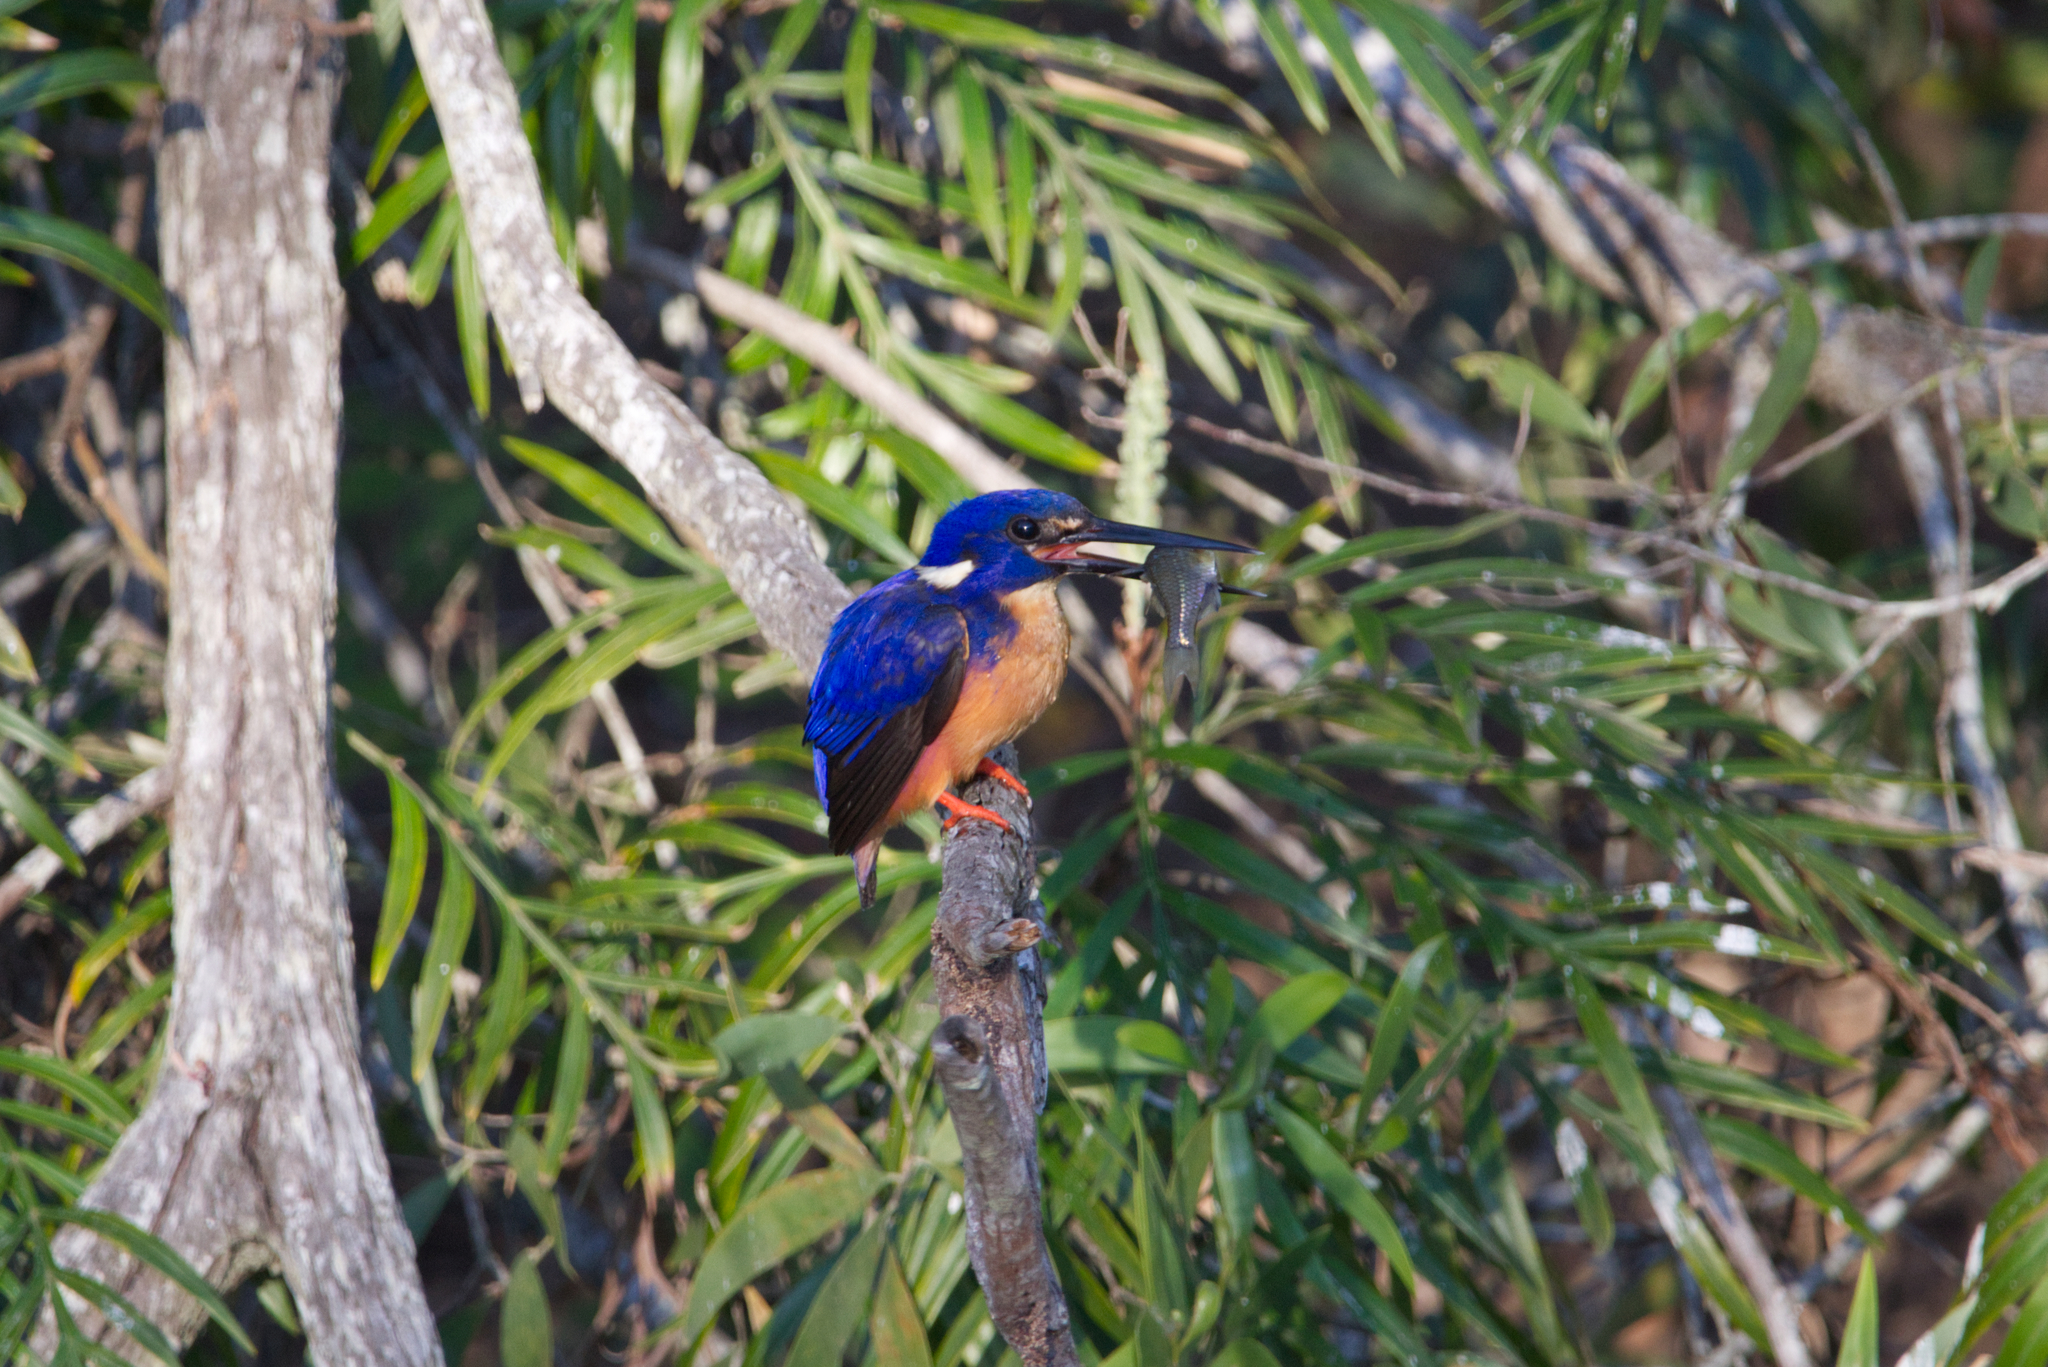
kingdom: Animalia
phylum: Chordata
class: Aves
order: Coraciiformes
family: Alcedinidae
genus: Ceyx
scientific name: Ceyx azureus
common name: Azure kingfisher
